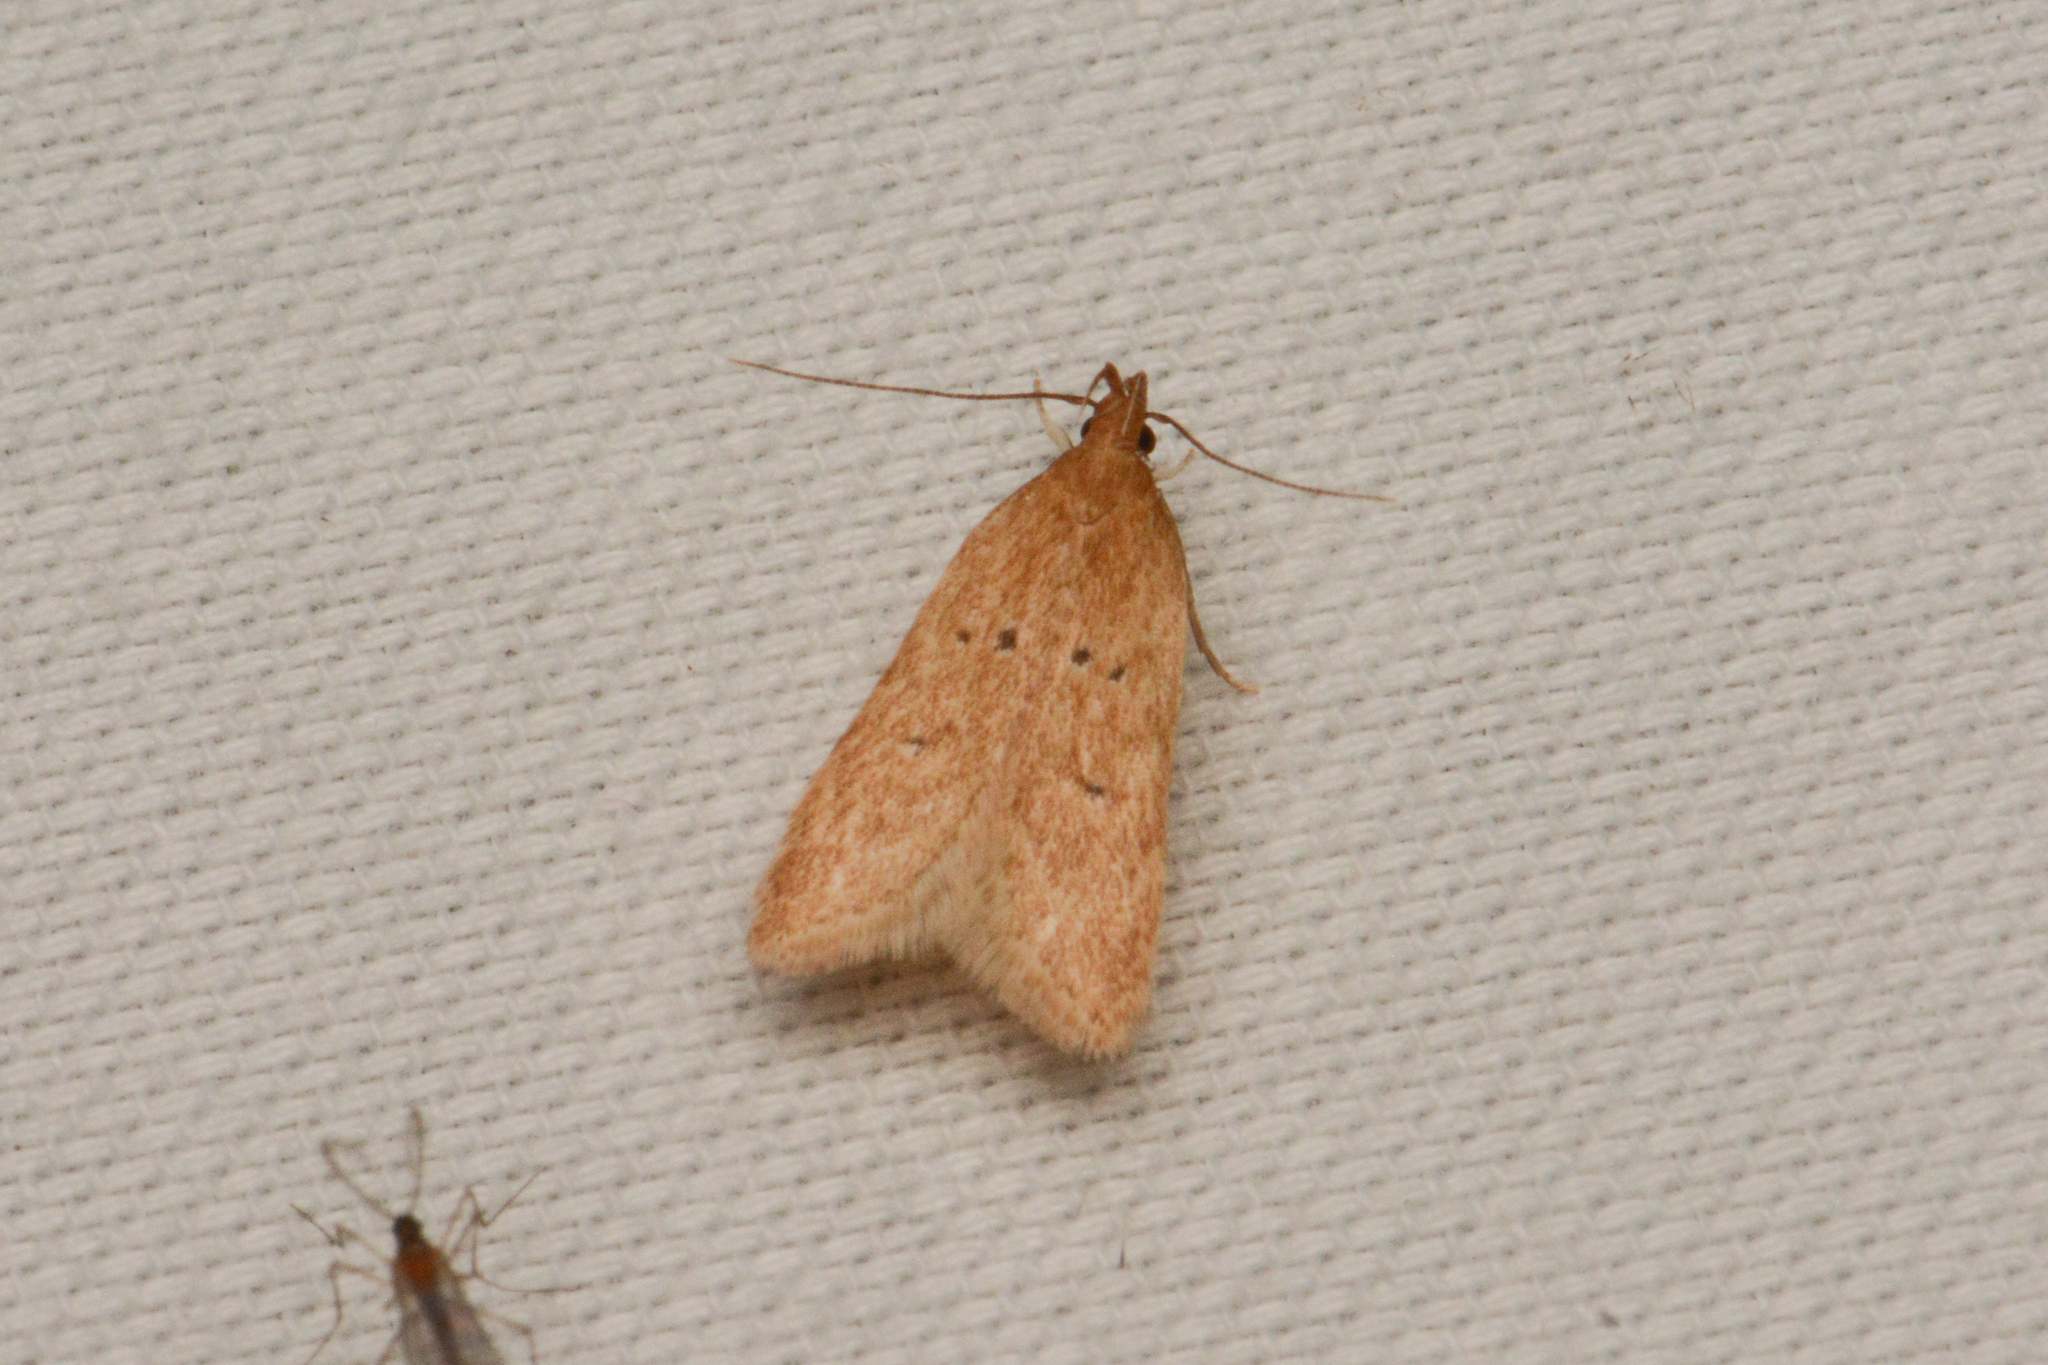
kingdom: Animalia
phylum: Arthropoda
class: Insecta
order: Lepidoptera
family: Gelechiidae
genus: Helcystogramma
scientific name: Helcystogramma badia
